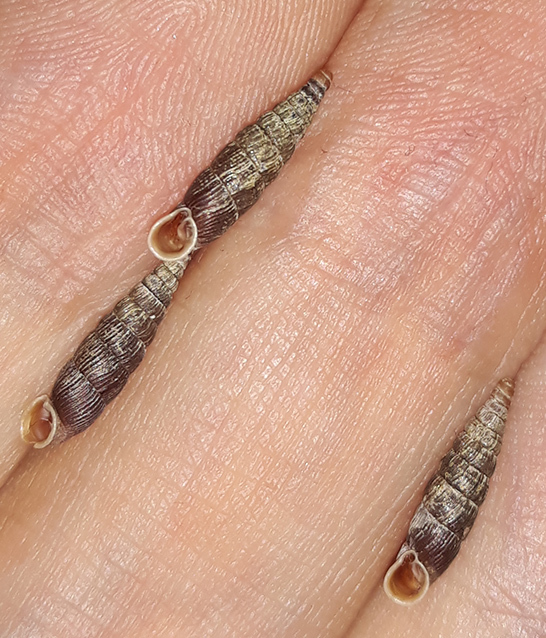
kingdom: Animalia
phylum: Mollusca
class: Gastropoda
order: Stylommatophora
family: Clausiliidae
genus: Macrogastra
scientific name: Macrogastra plicatula
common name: Plicate door snail
